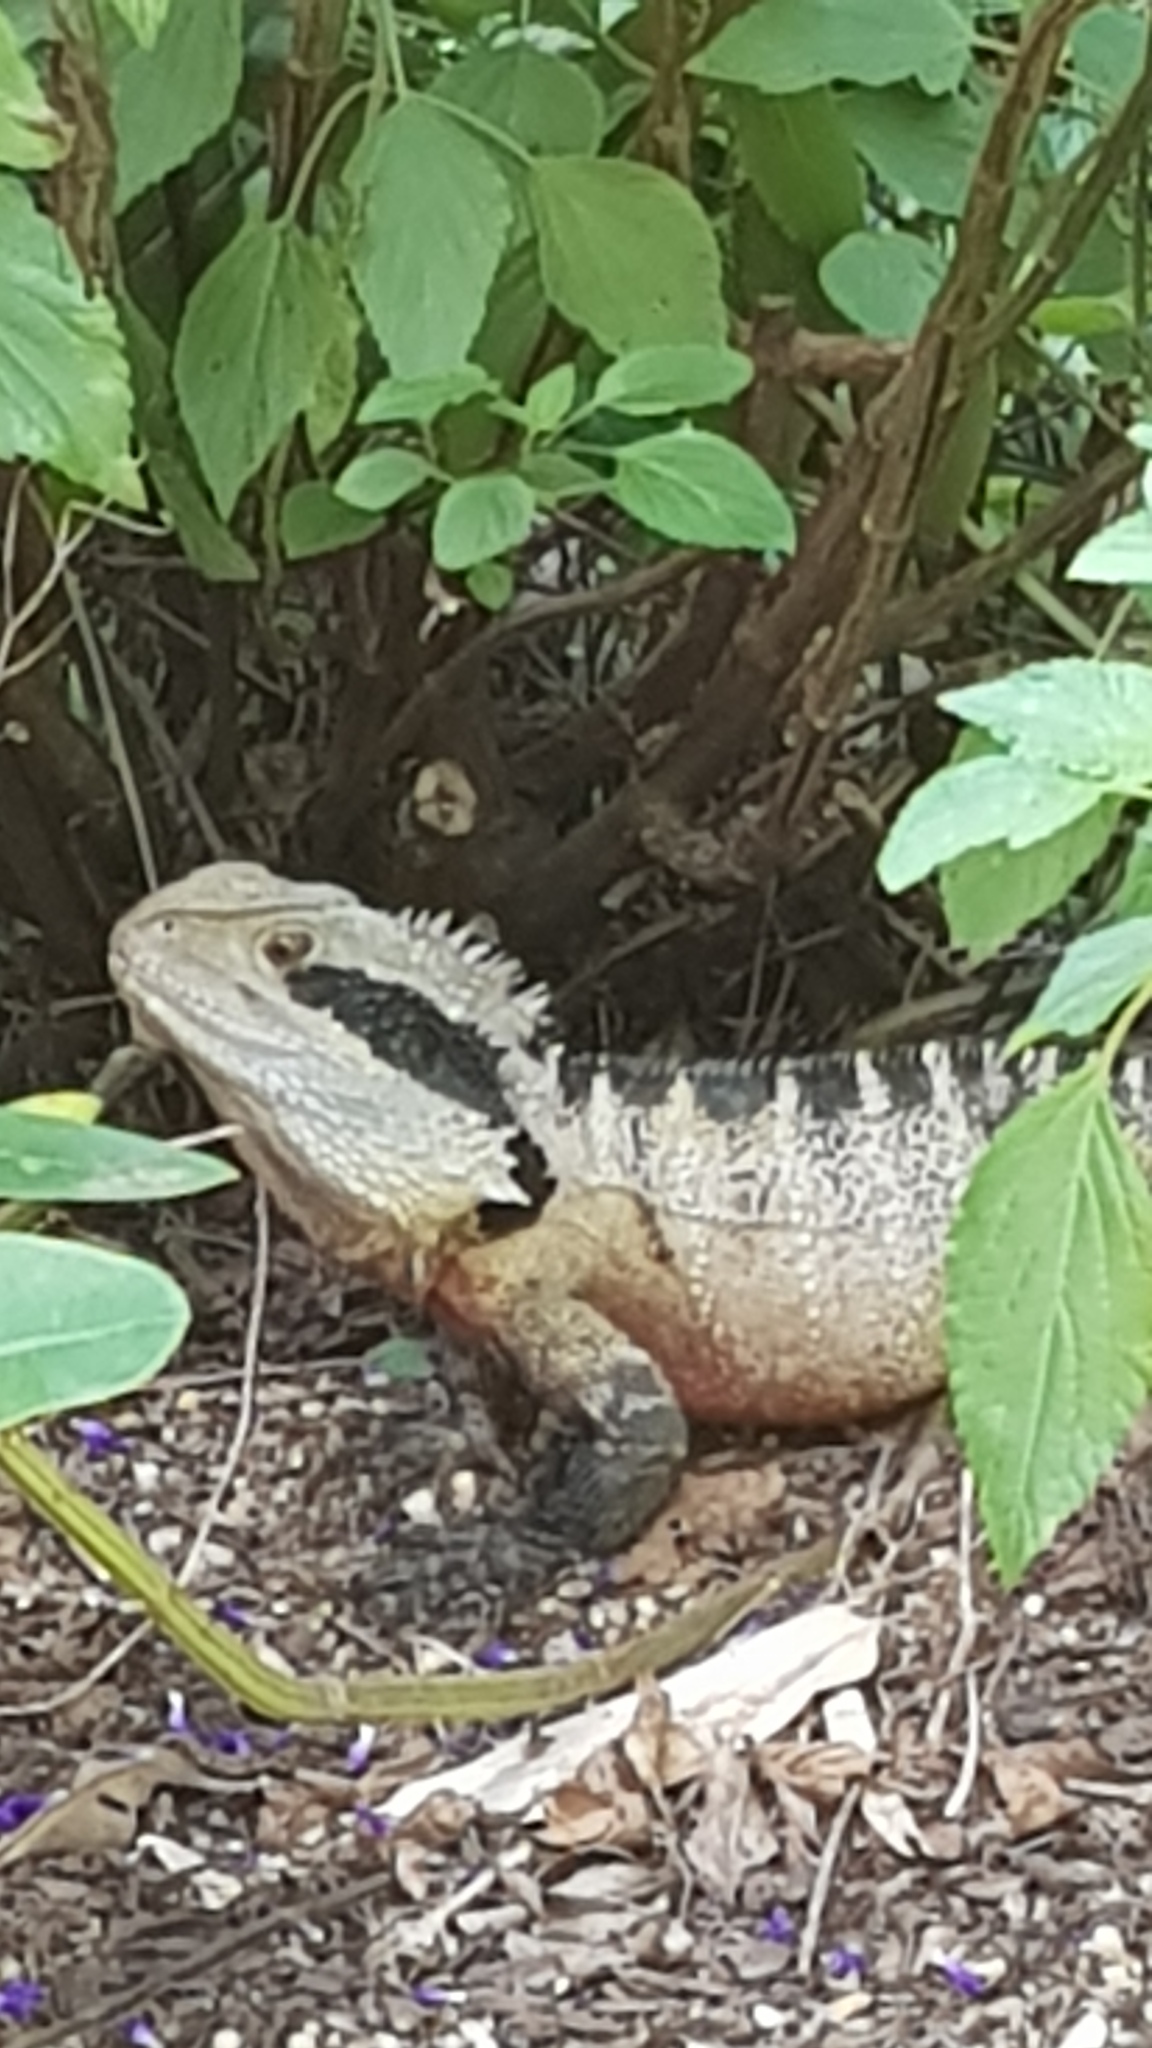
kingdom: Animalia
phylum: Chordata
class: Squamata
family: Agamidae
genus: Intellagama
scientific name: Intellagama lesueurii
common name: Eastern water dragon
